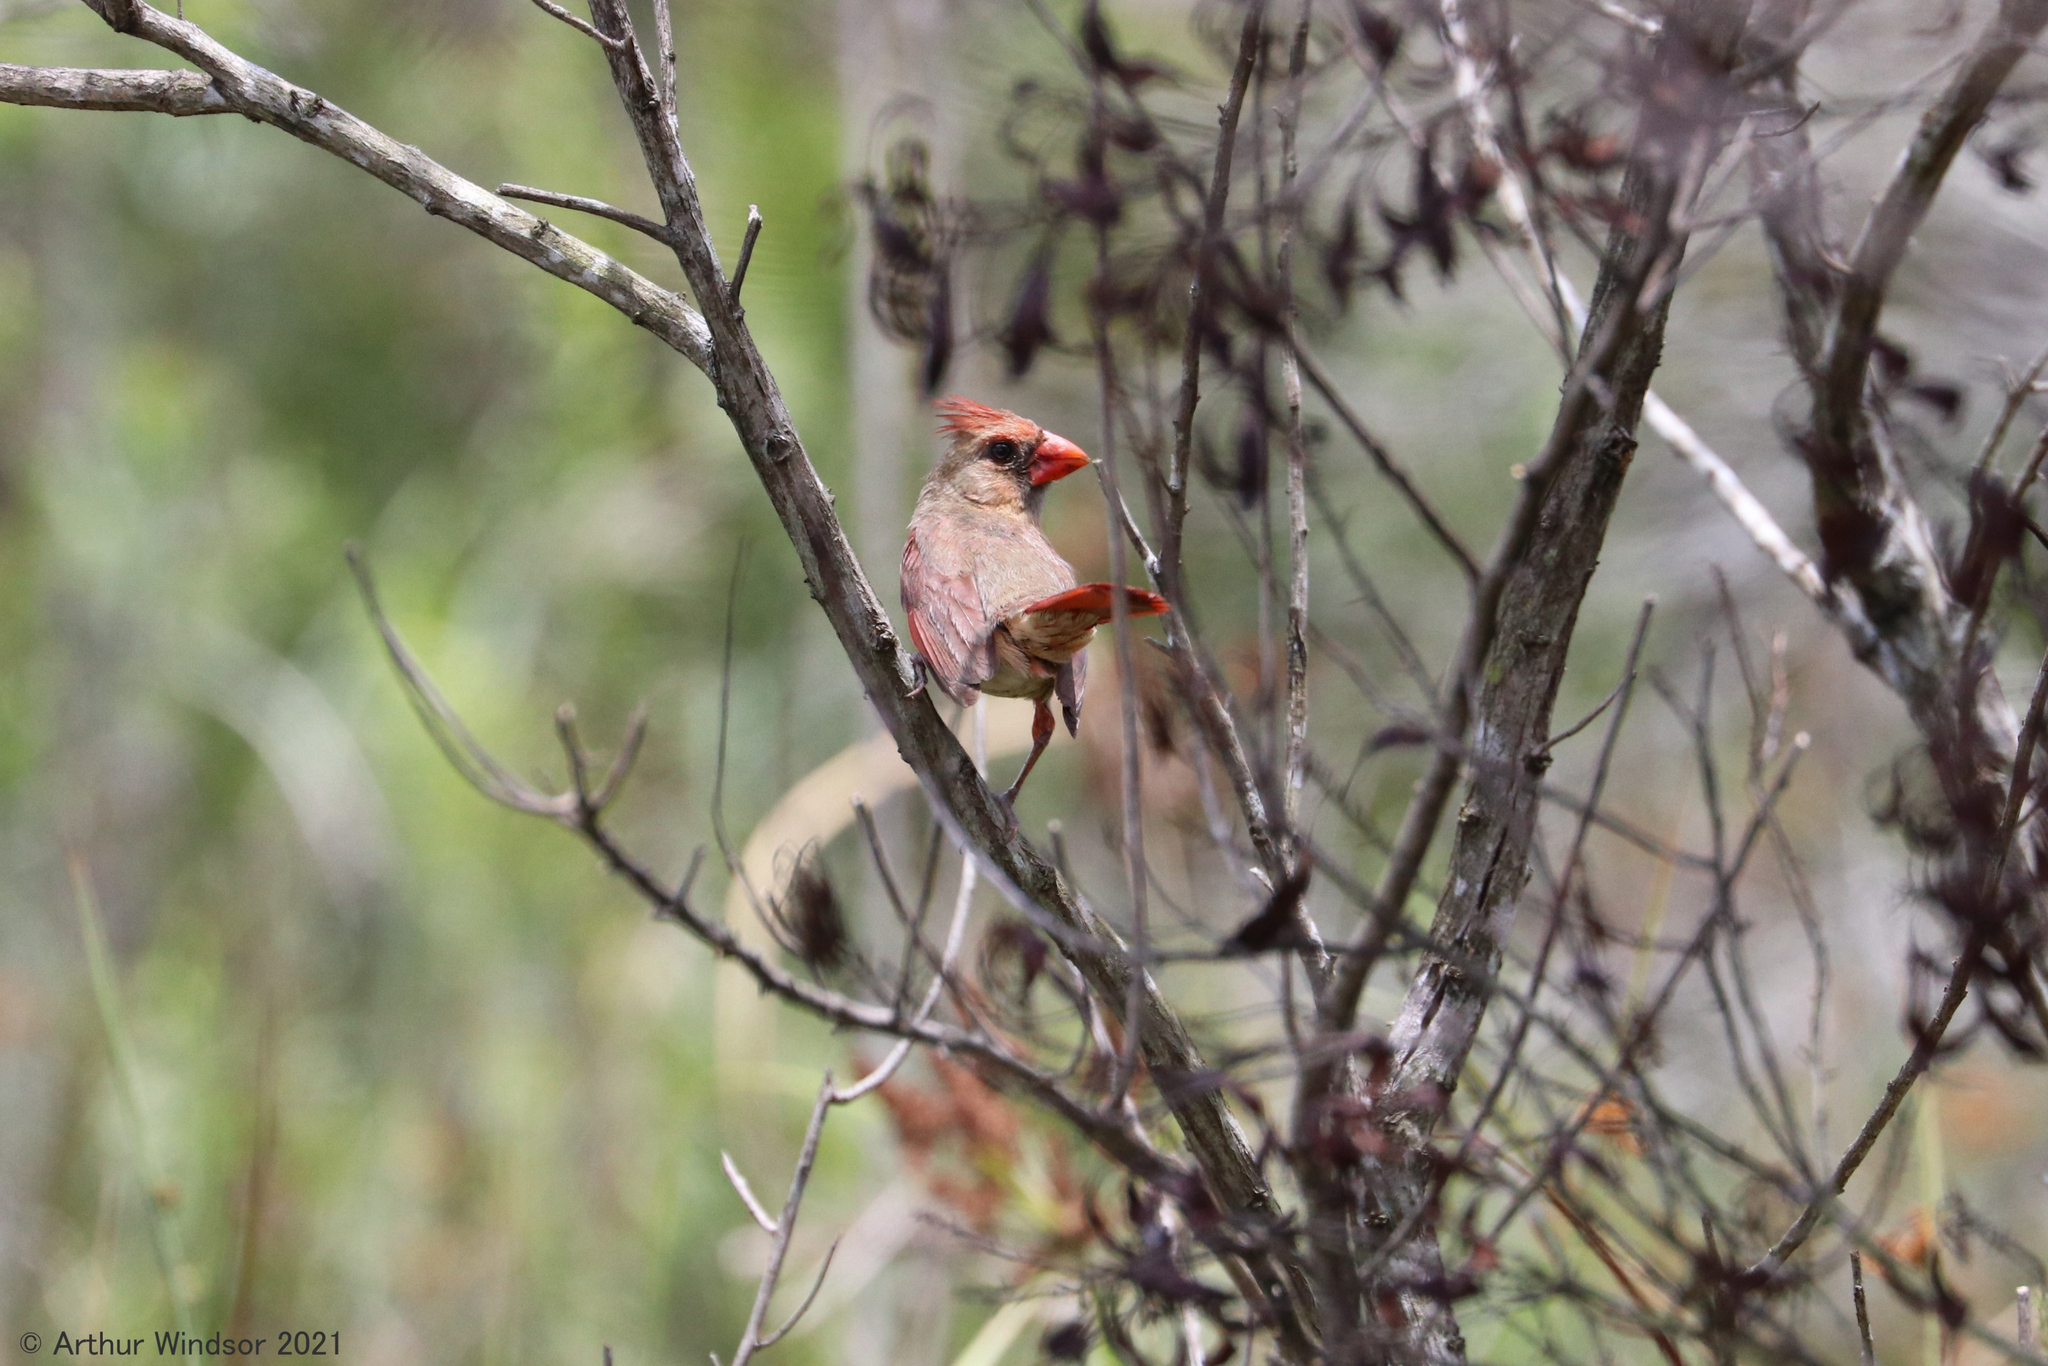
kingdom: Animalia
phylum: Chordata
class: Aves
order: Passeriformes
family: Cardinalidae
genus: Cardinalis
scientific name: Cardinalis cardinalis
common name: Northern cardinal
